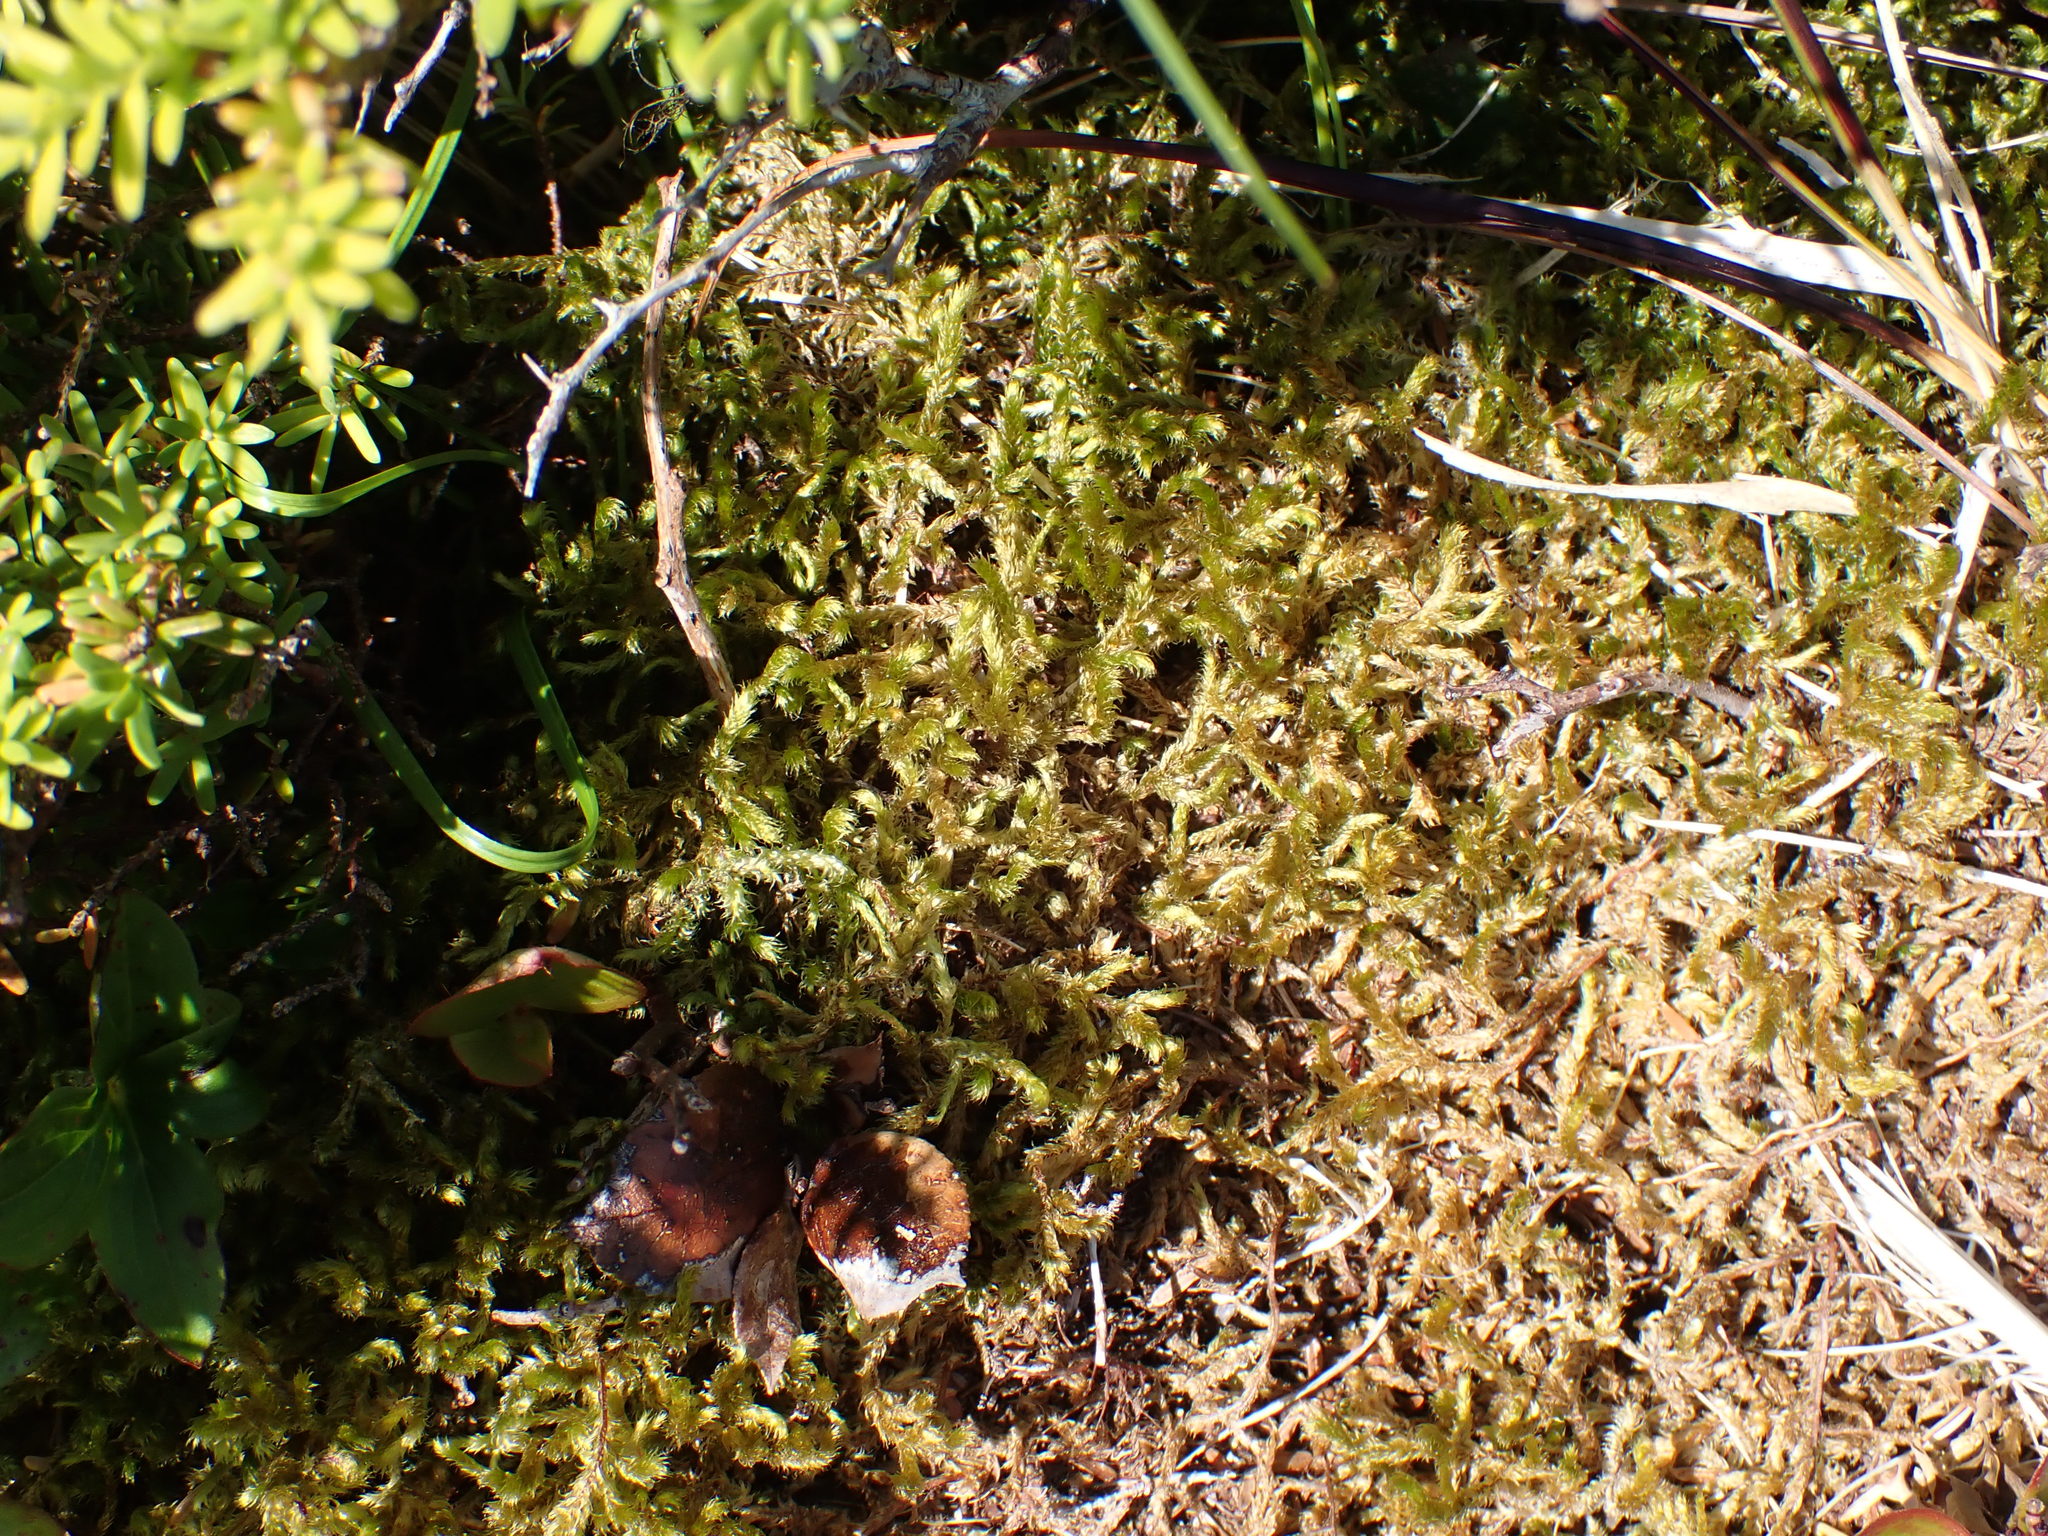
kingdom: Plantae
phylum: Bryophyta
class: Bryopsida
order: Hypnales
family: Antitrichiaceae
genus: Antitrichia
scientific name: Antitrichia curtipendula
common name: Pendulous wing-moss
